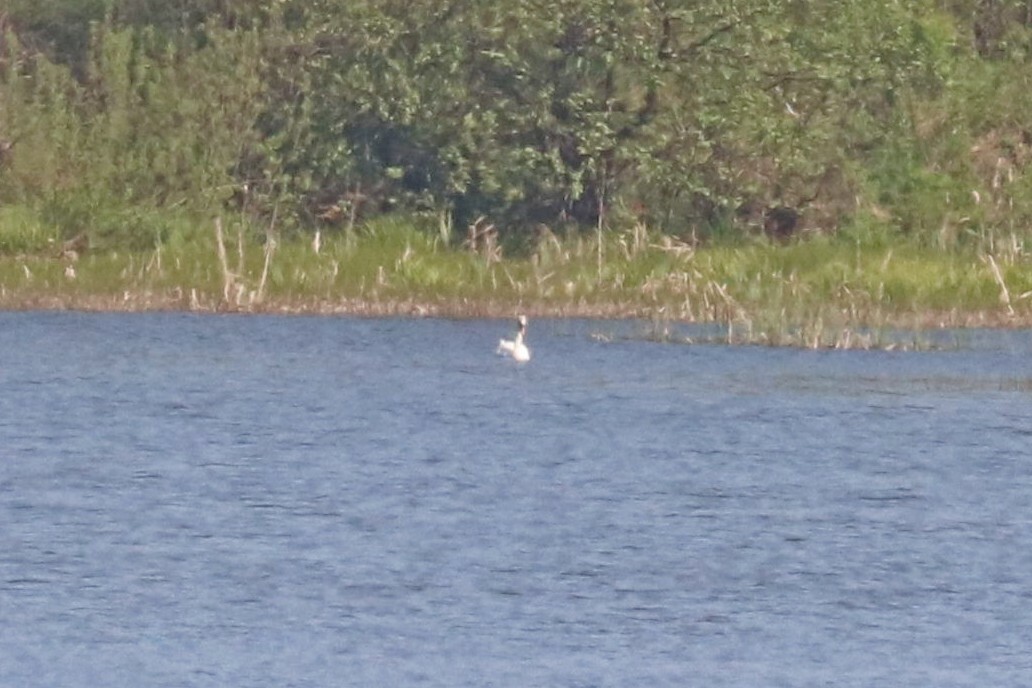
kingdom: Animalia
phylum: Chordata
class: Aves
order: Anseriformes
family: Anatidae
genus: Cygnus
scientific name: Cygnus olor
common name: Mute swan
